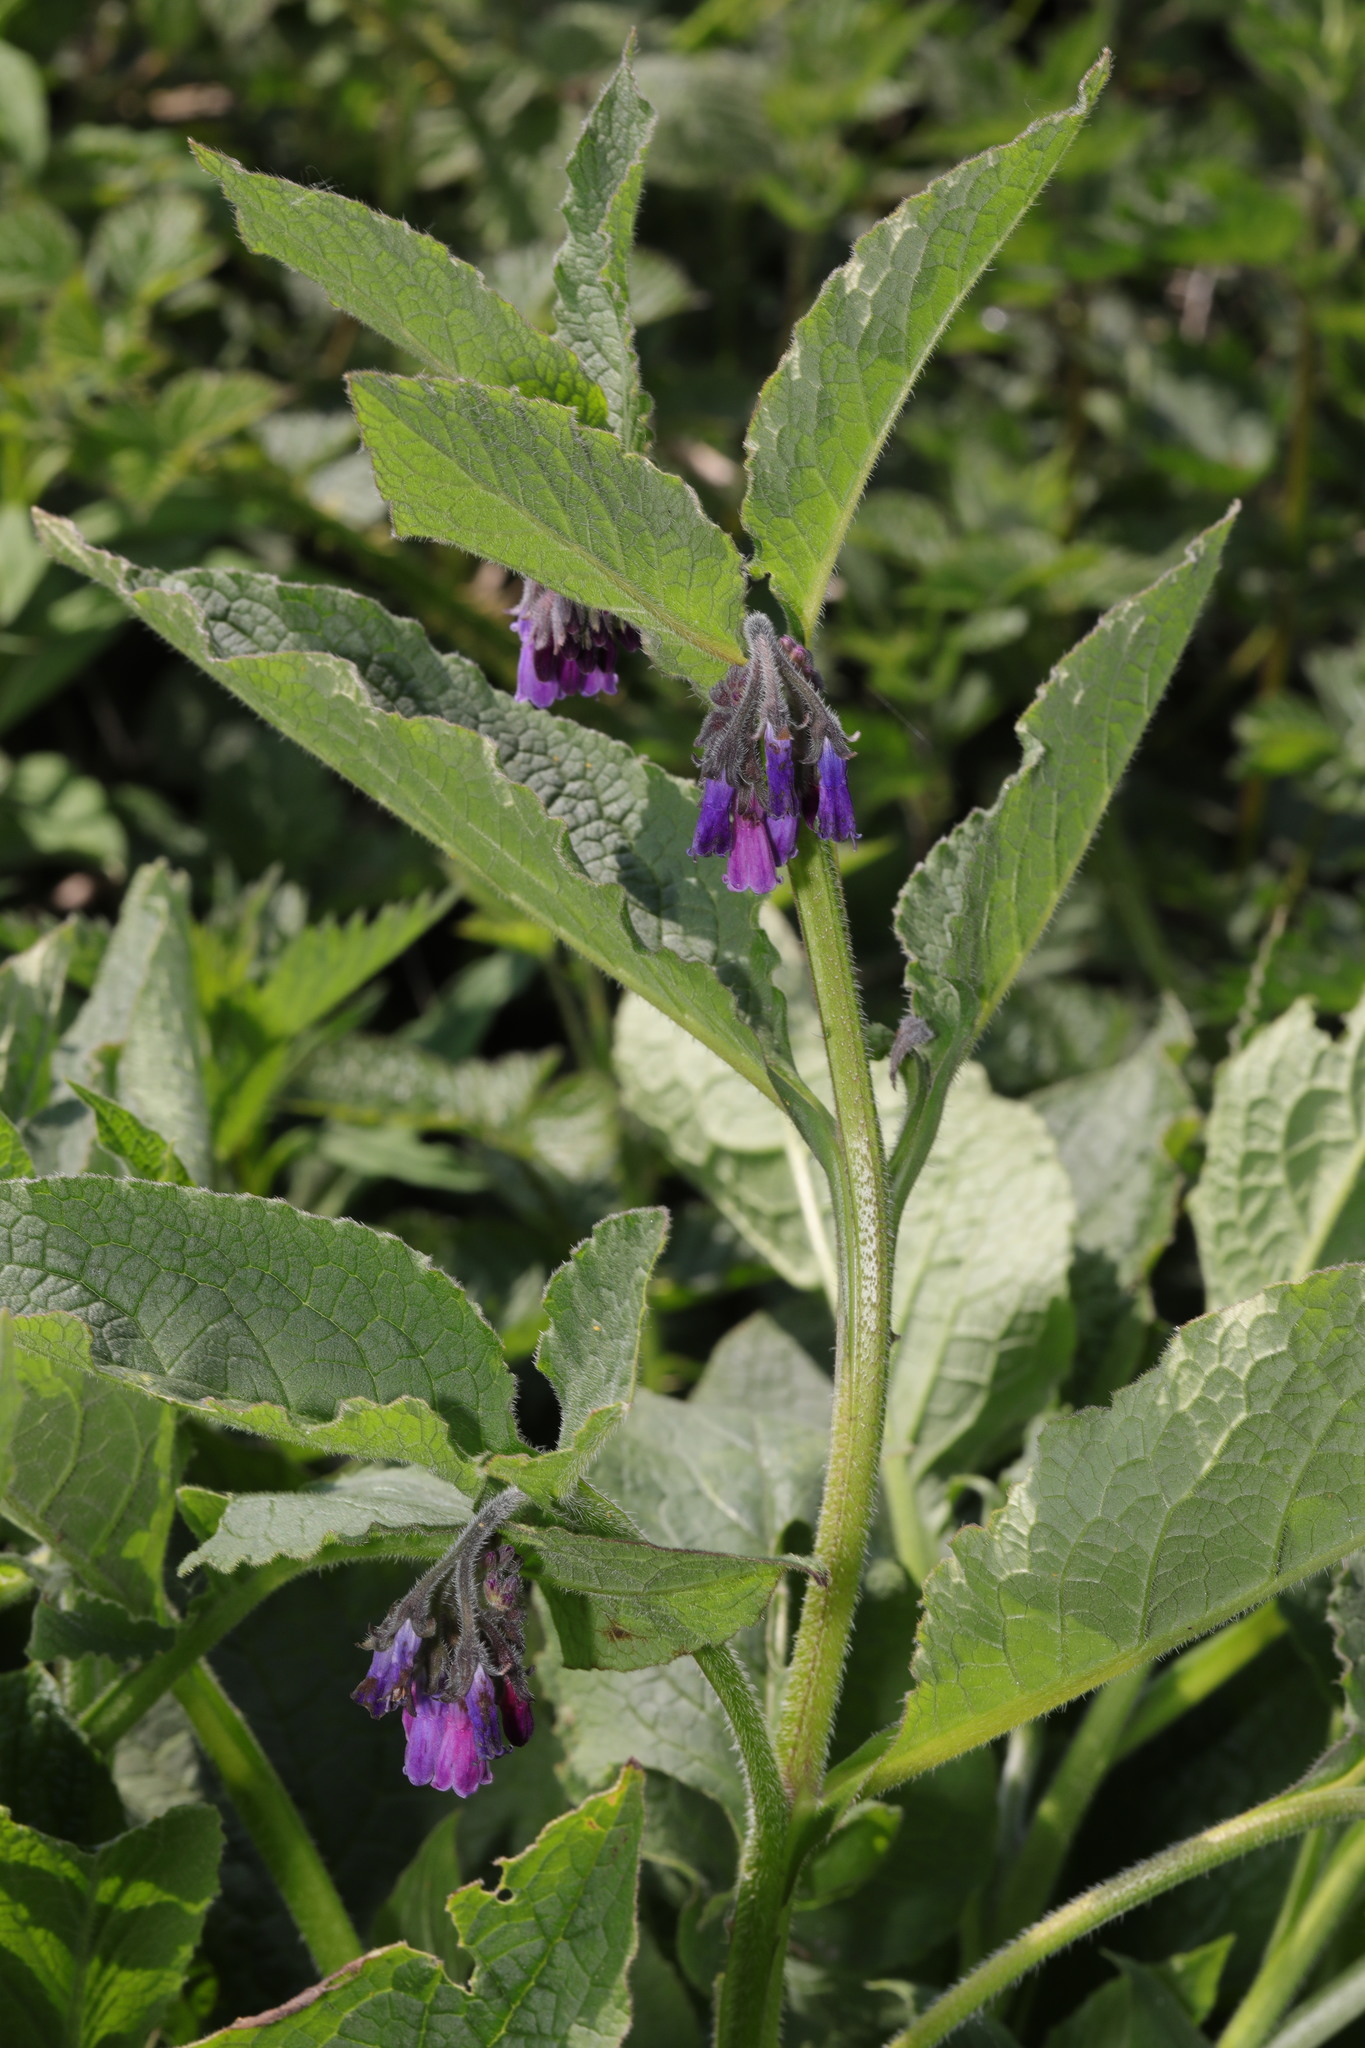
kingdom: Plantae
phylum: Tracheophyta
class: Magnoliopsida
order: Boraginales
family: Boraginaceae
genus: Symphytum
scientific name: Symphytum uplandicum
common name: Russian comfrey
